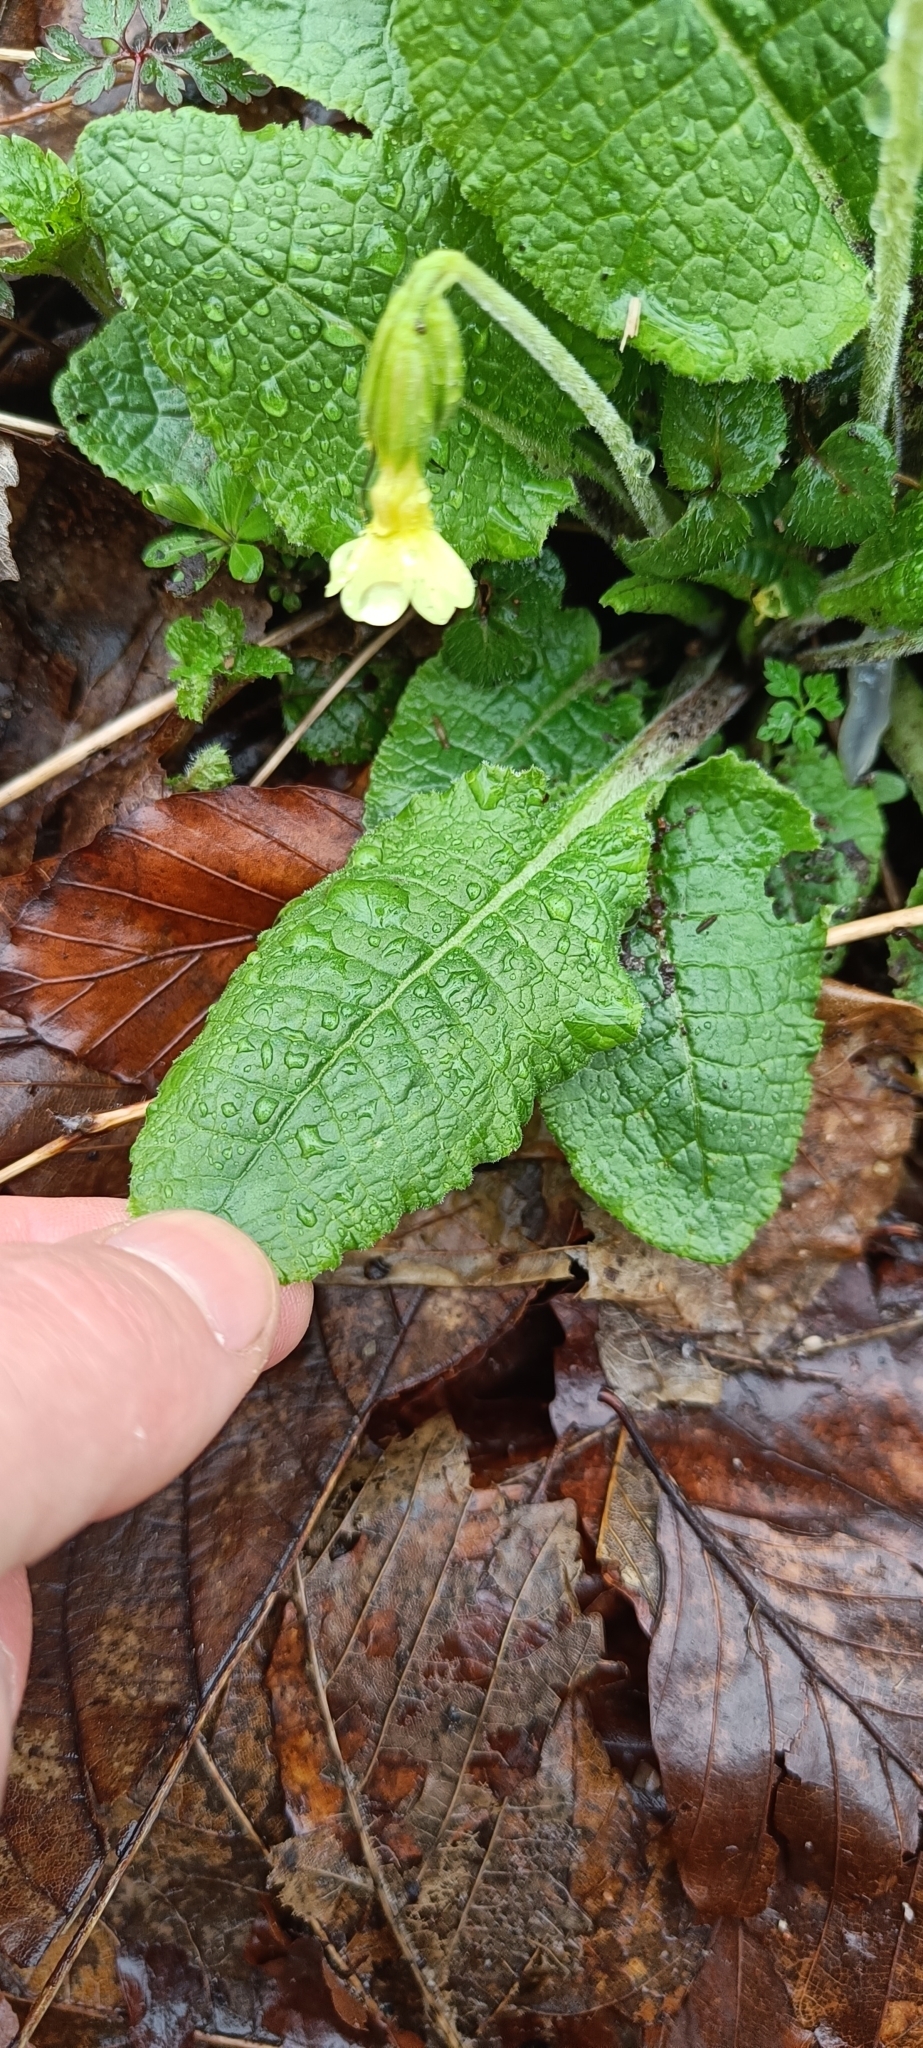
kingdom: Plantae
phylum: Tracheophyta
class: Magnoliopsida
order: Ericales
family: Primulaceae
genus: Primula
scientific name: Primula elatior
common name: Oxlip
